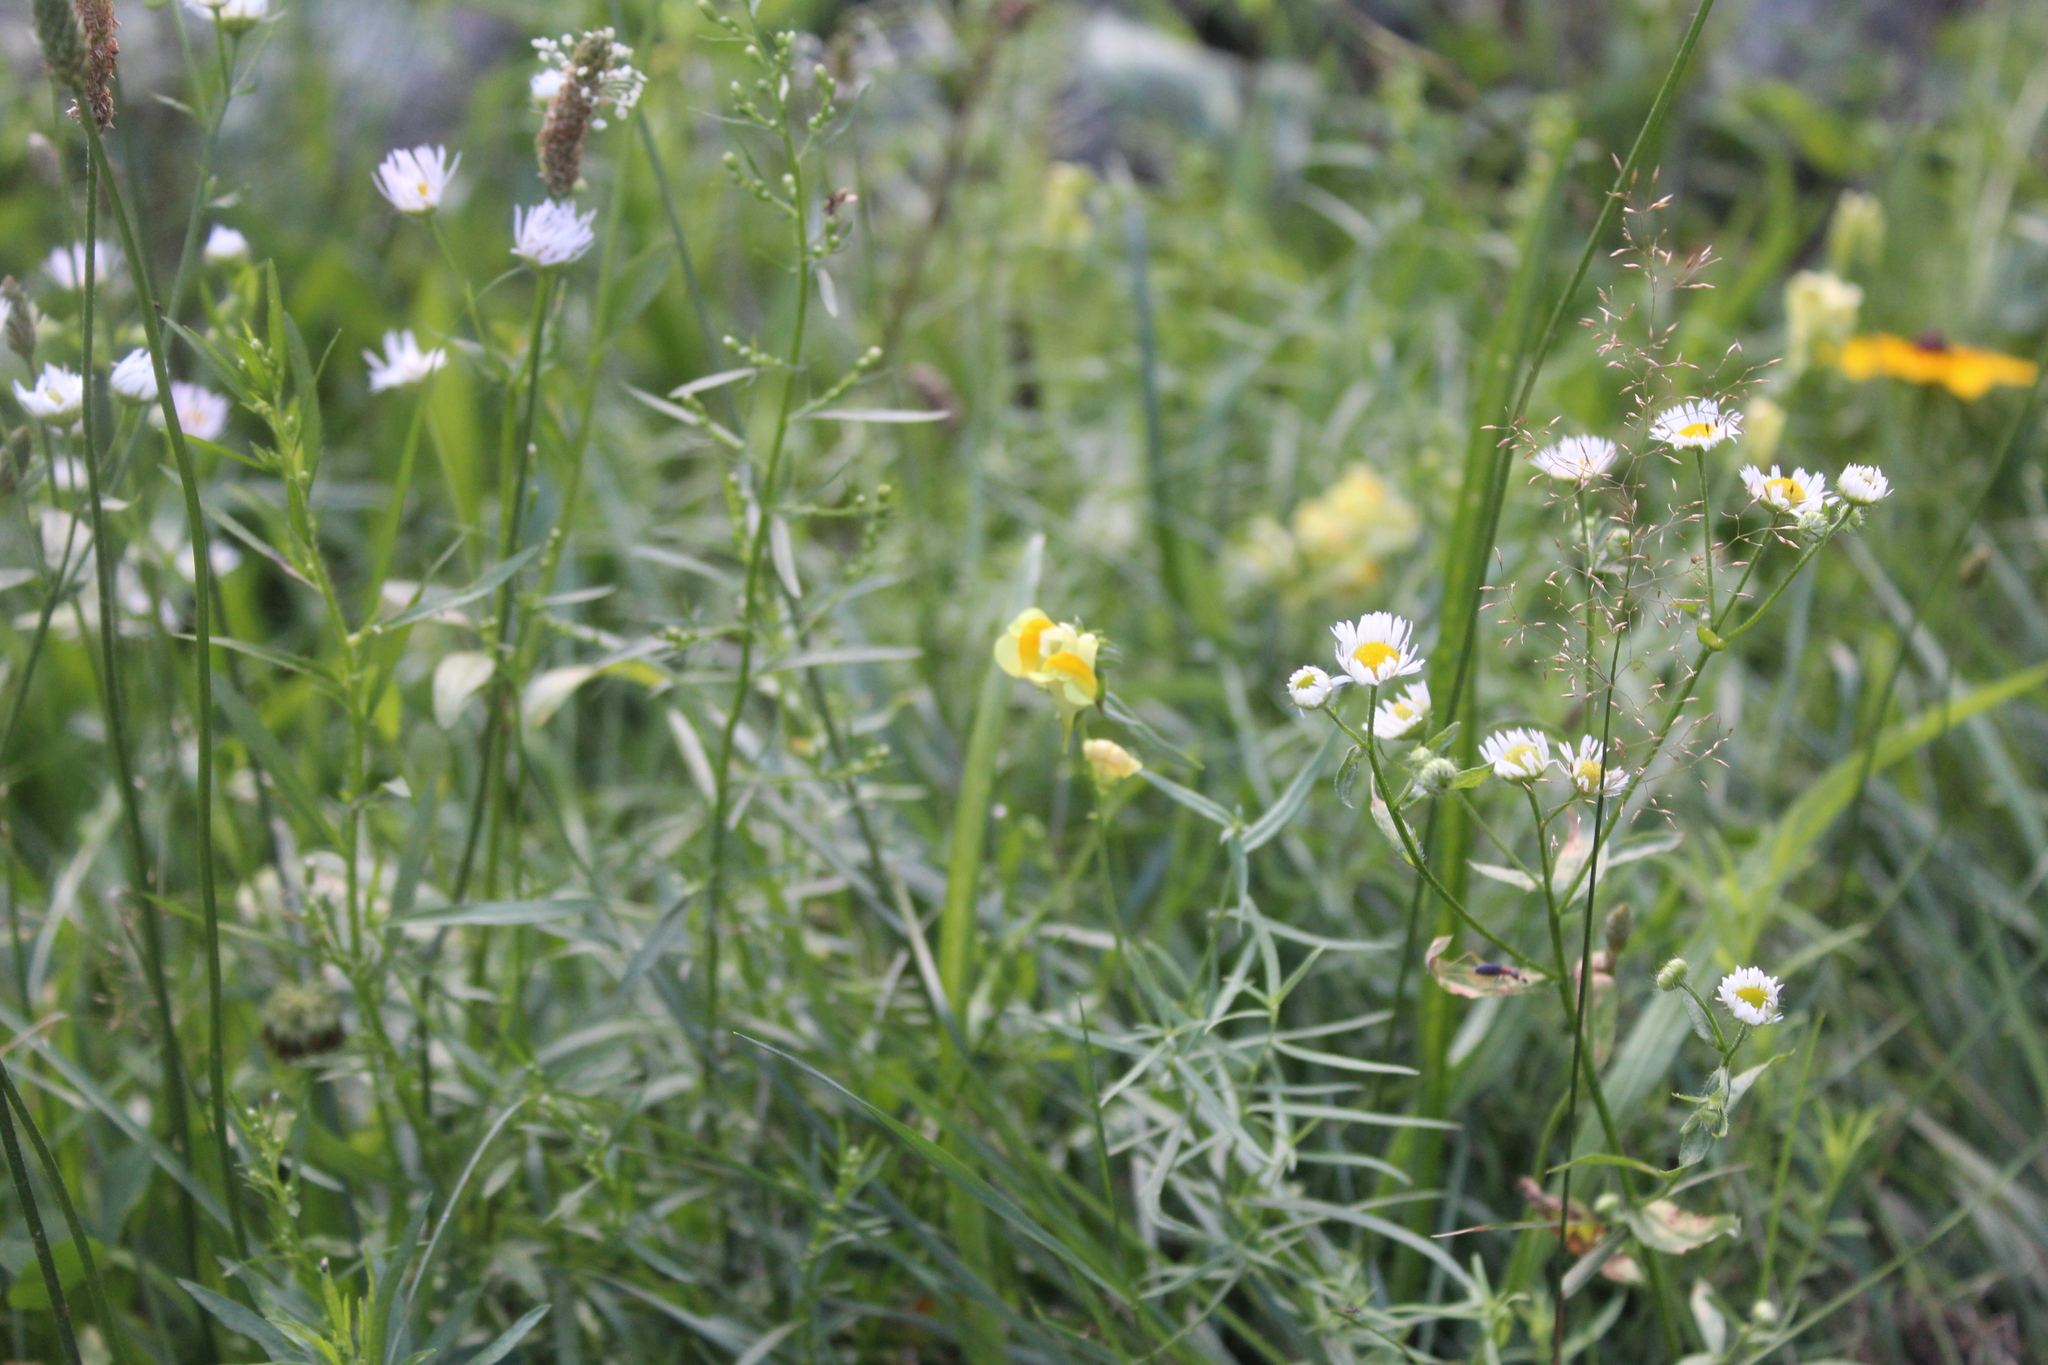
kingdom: Plantae
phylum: Tracheophyta
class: Magnoliopsida
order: Lamiales
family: Plantaginaceae
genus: Linaria
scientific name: Linaria vulgaris
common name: Butter and eggs
